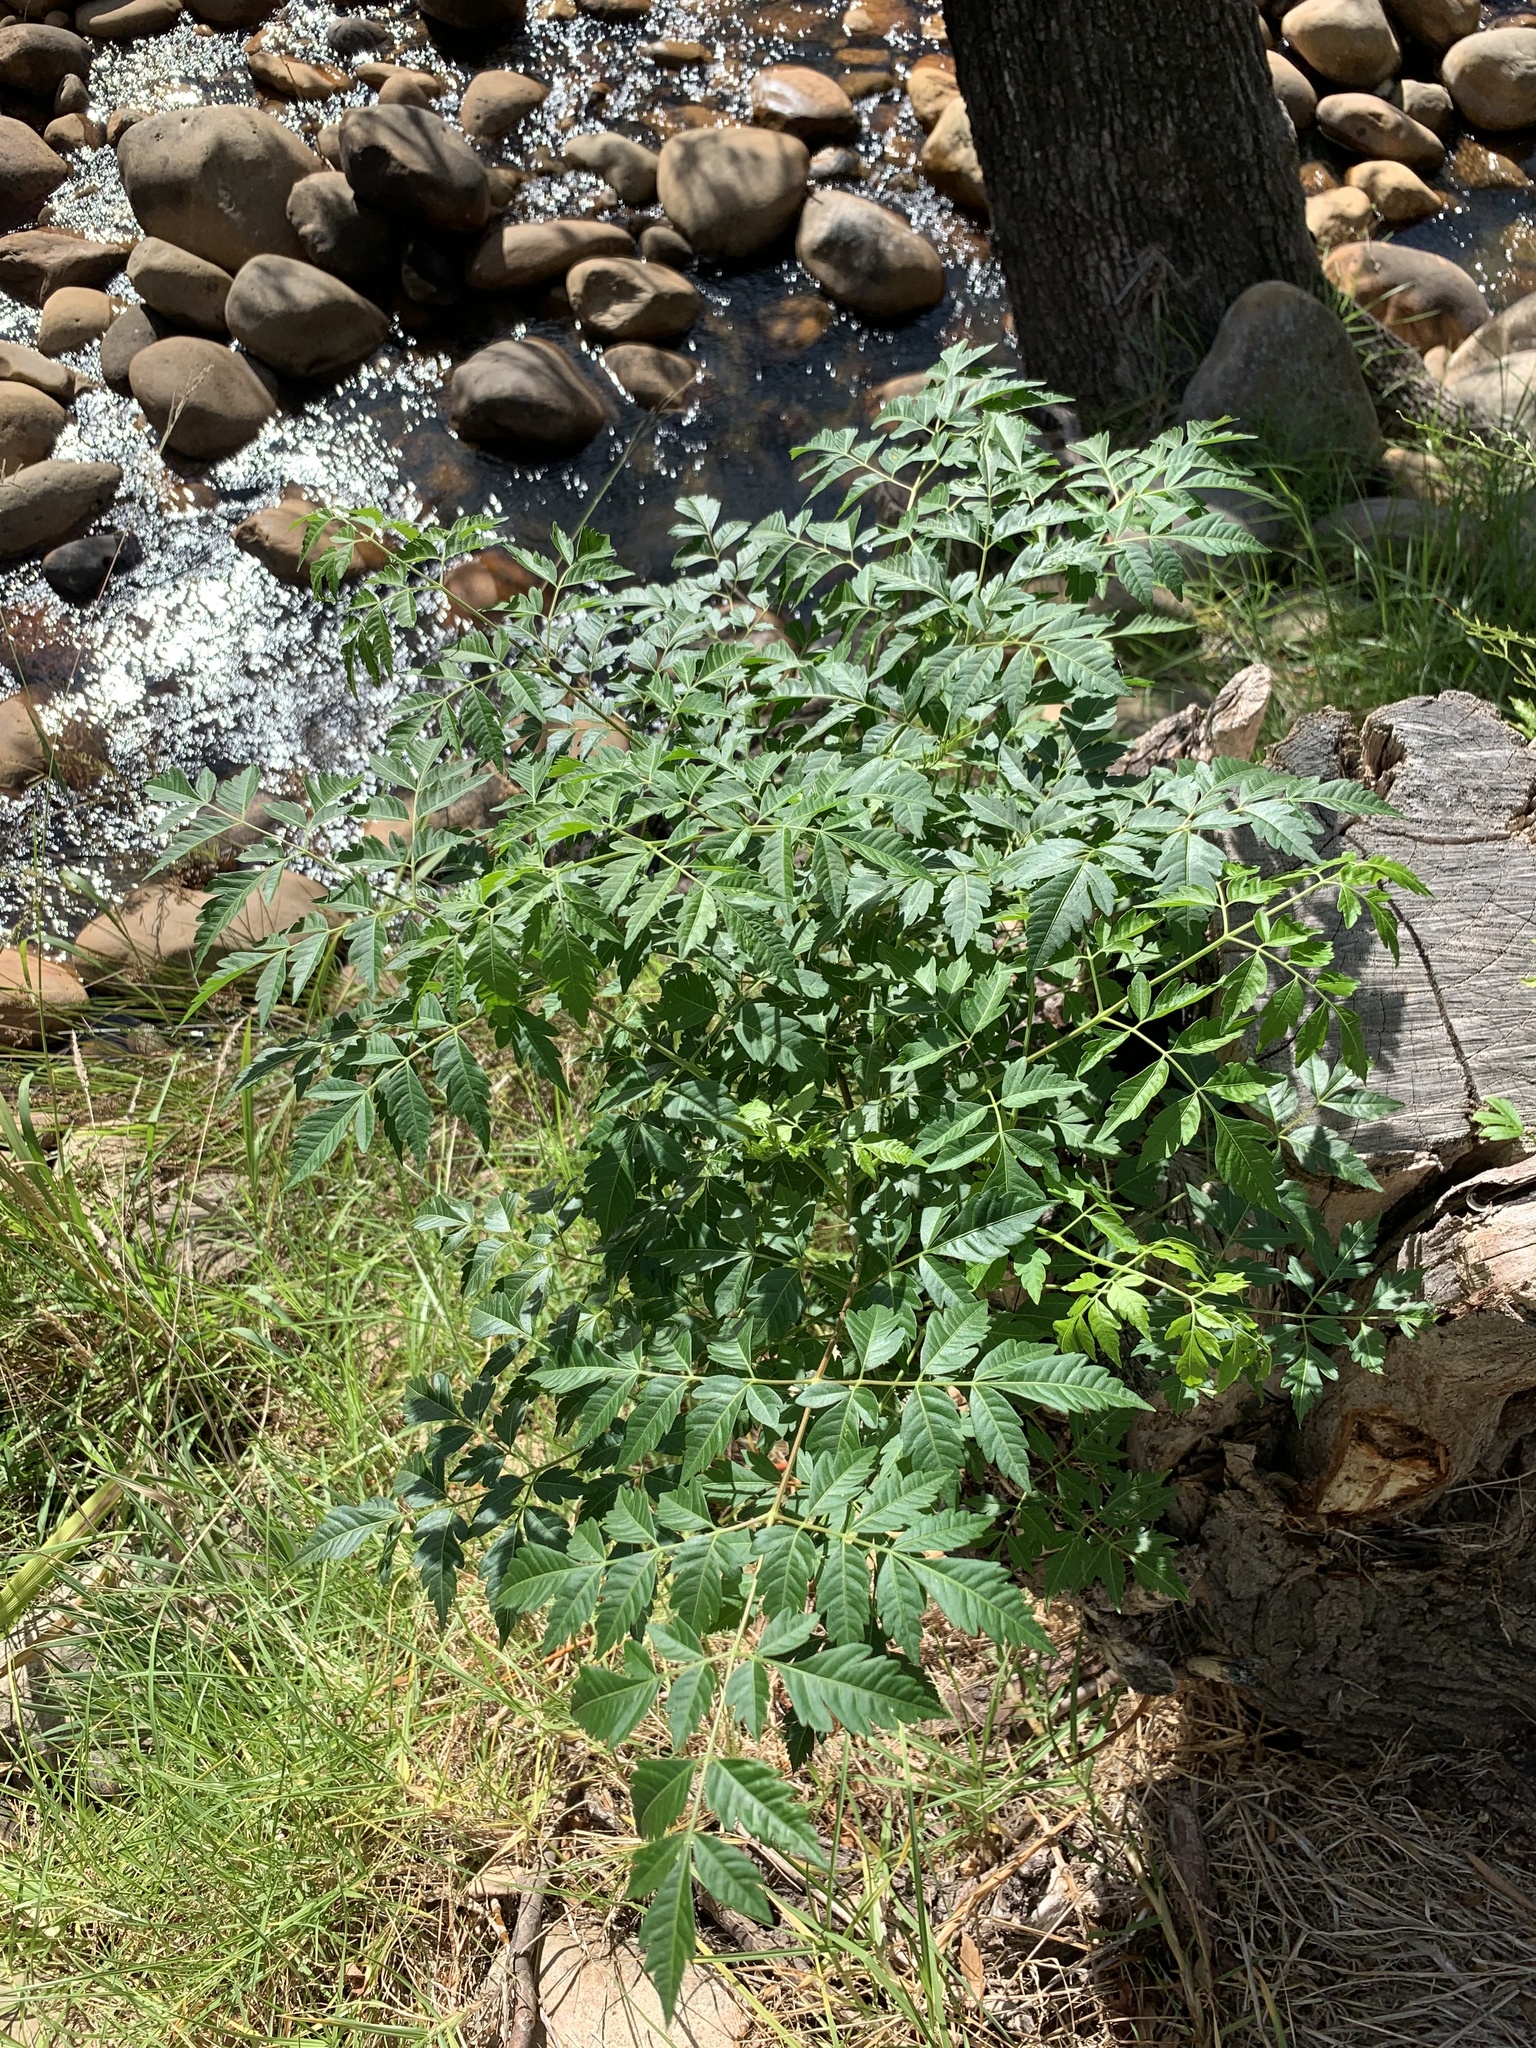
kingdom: Plantae
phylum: Tracheophyta
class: Magnoliopsida
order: Sapindales
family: Meliaceae
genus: Melia
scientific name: Melia azedarach
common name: Chinaberrytree
